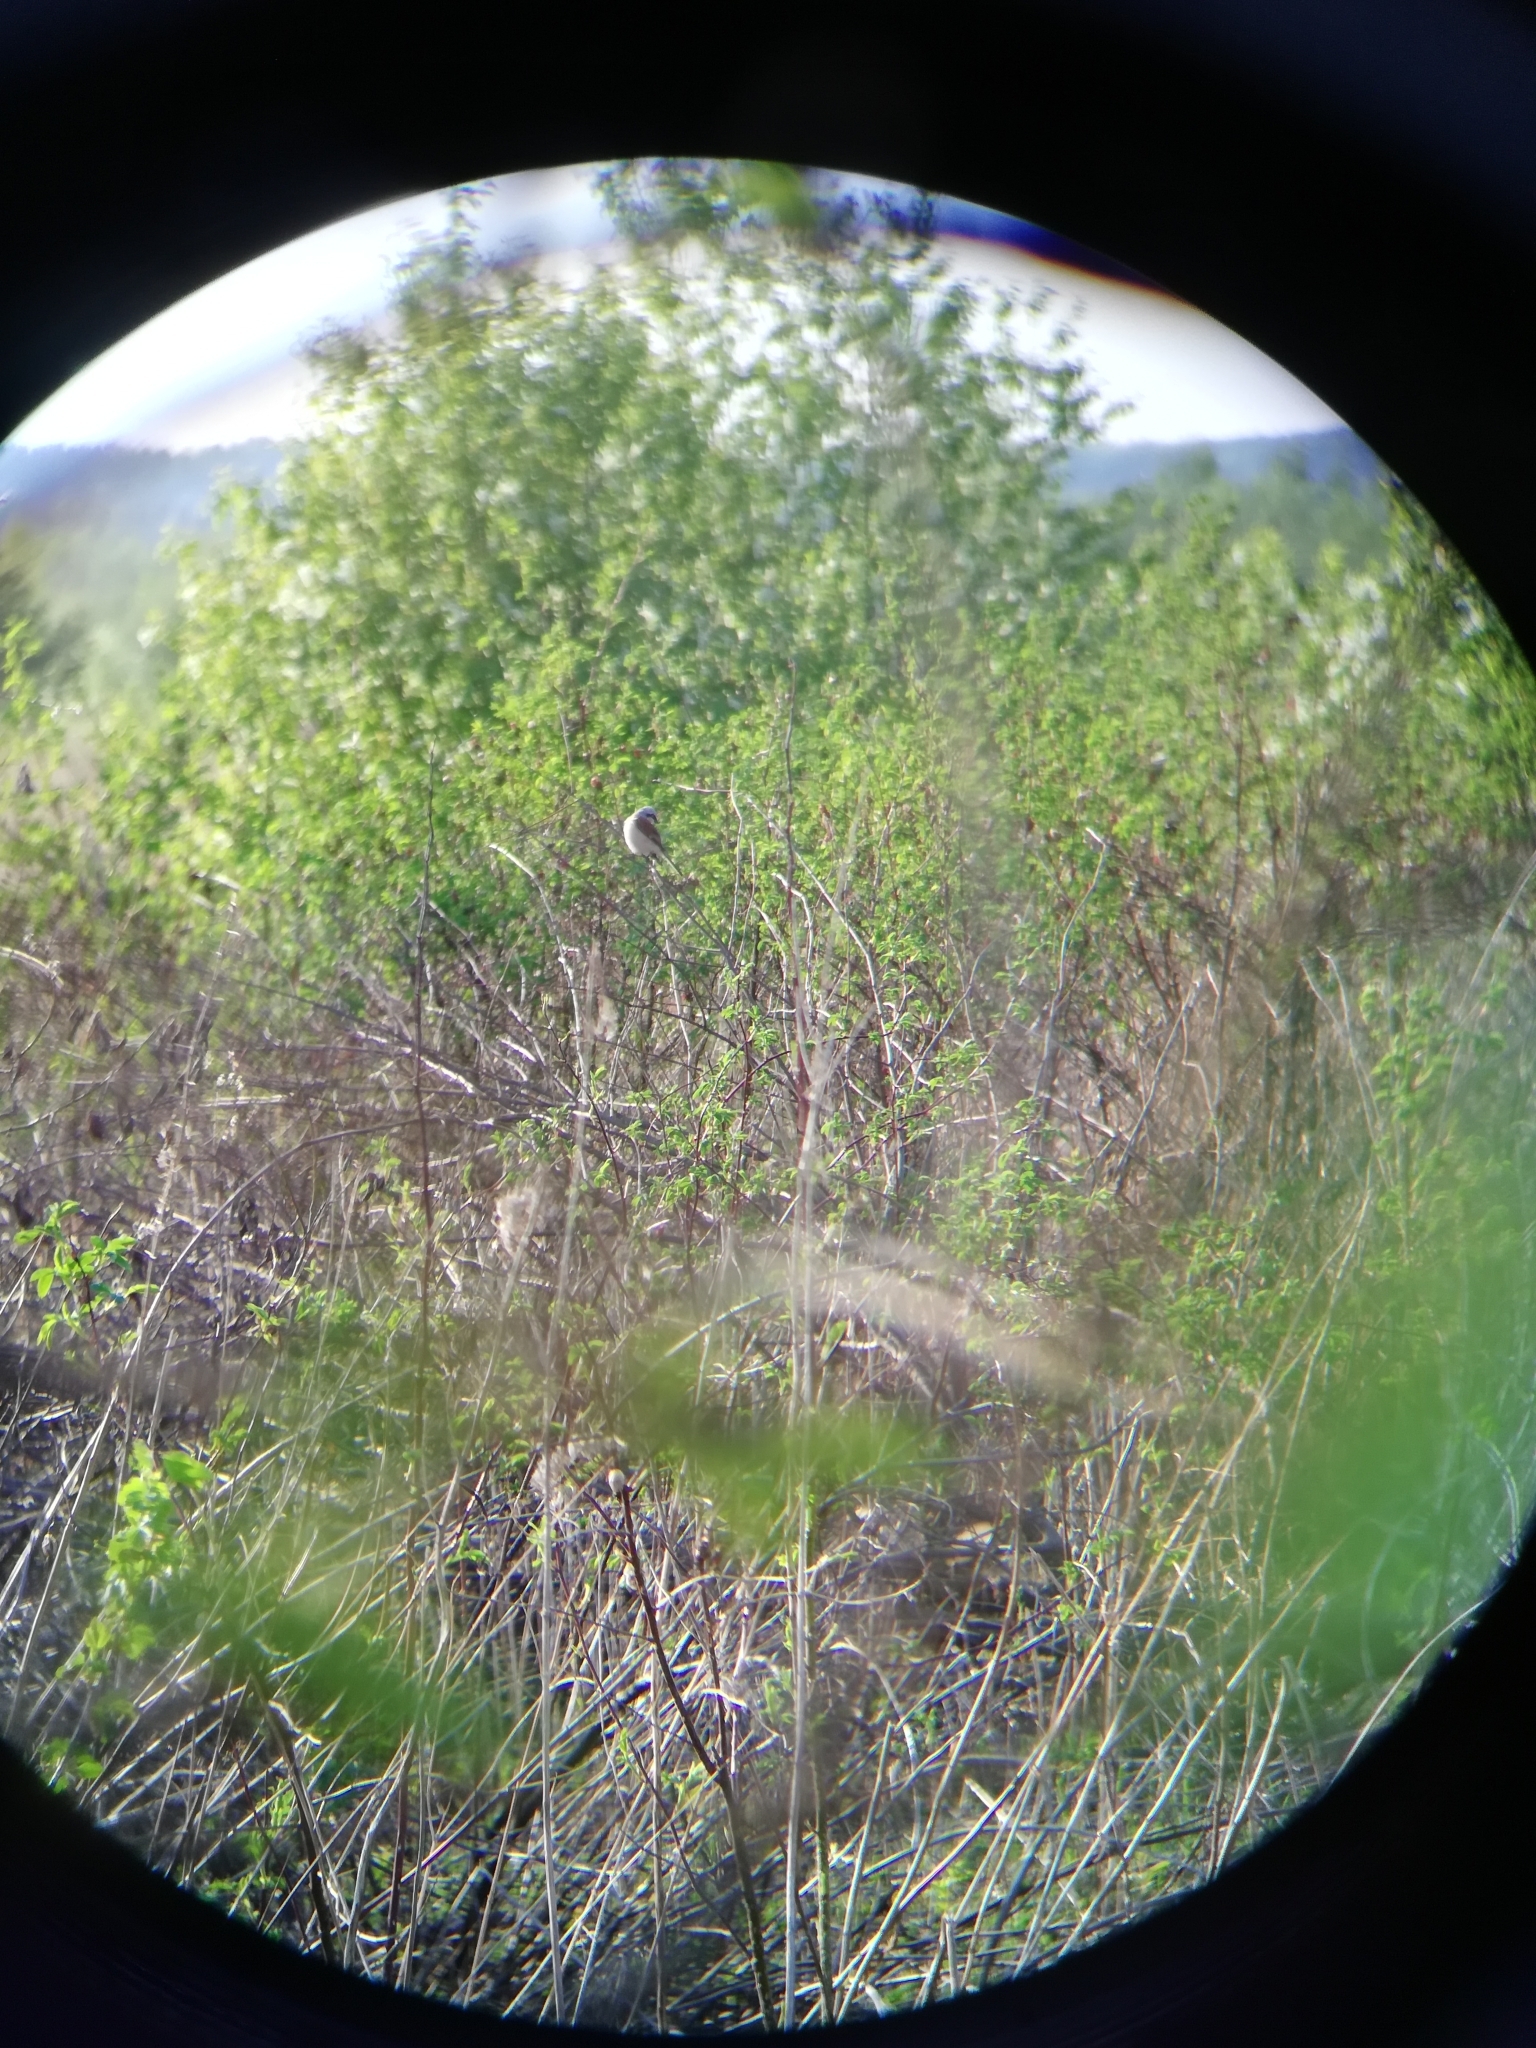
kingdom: Animalia
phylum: Chordata
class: Aves
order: Passeriformes
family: Laniidae
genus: Lanius
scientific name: Lanius collurio
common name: Red-backed shrike
